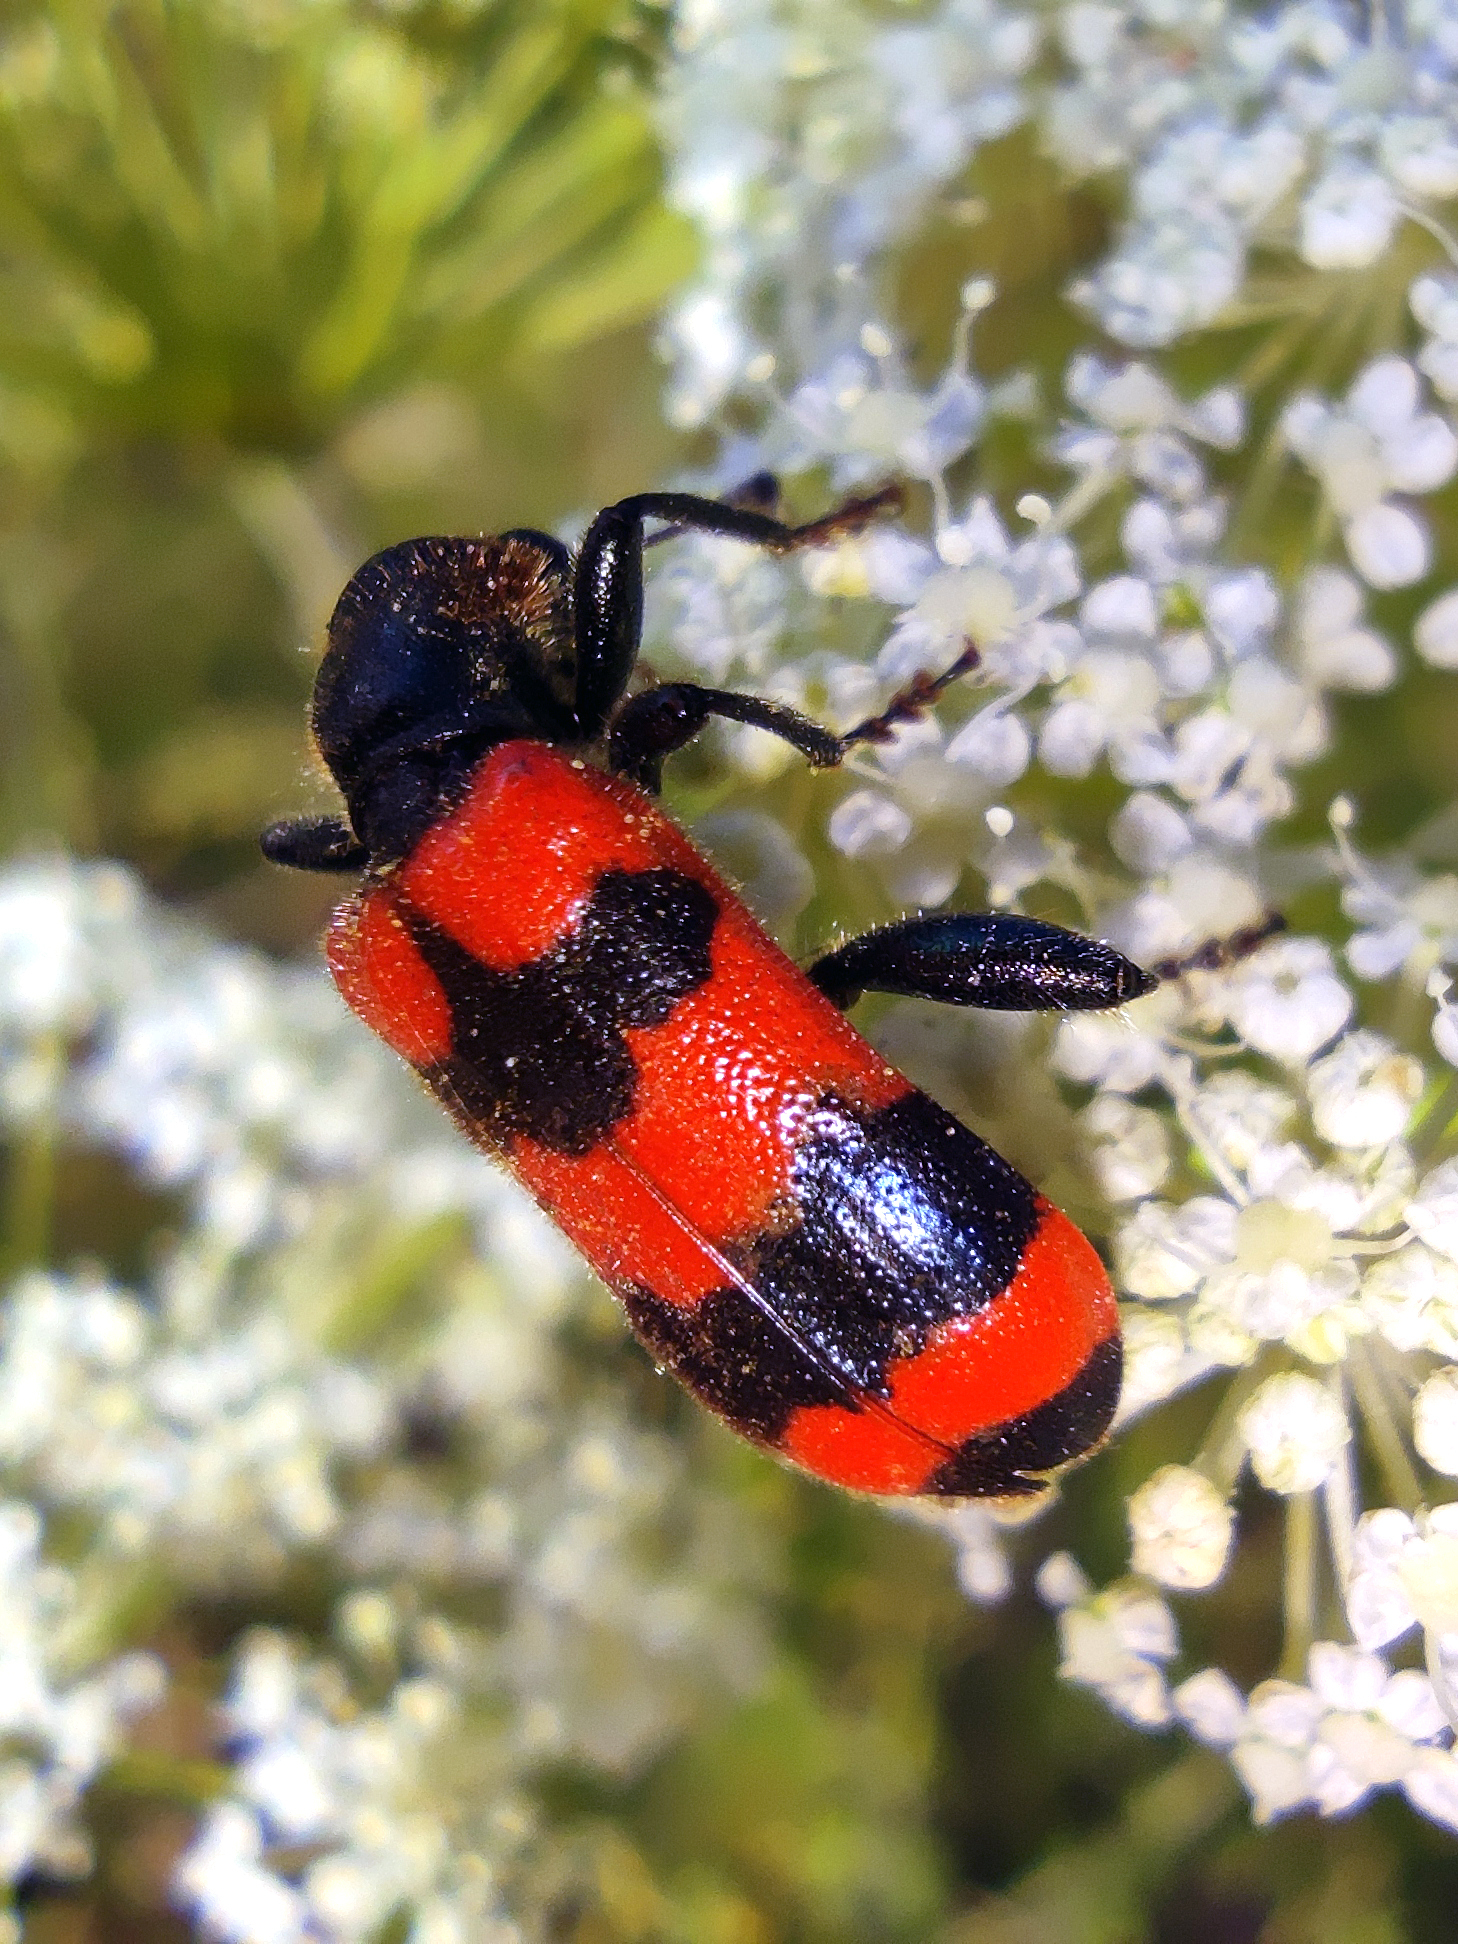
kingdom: Animalia
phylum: Arthropoda
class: Insecta
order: Coleoptera
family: Cleridae
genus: Trichodes
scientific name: Trichodes apiarius
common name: Bee-eating beetle
